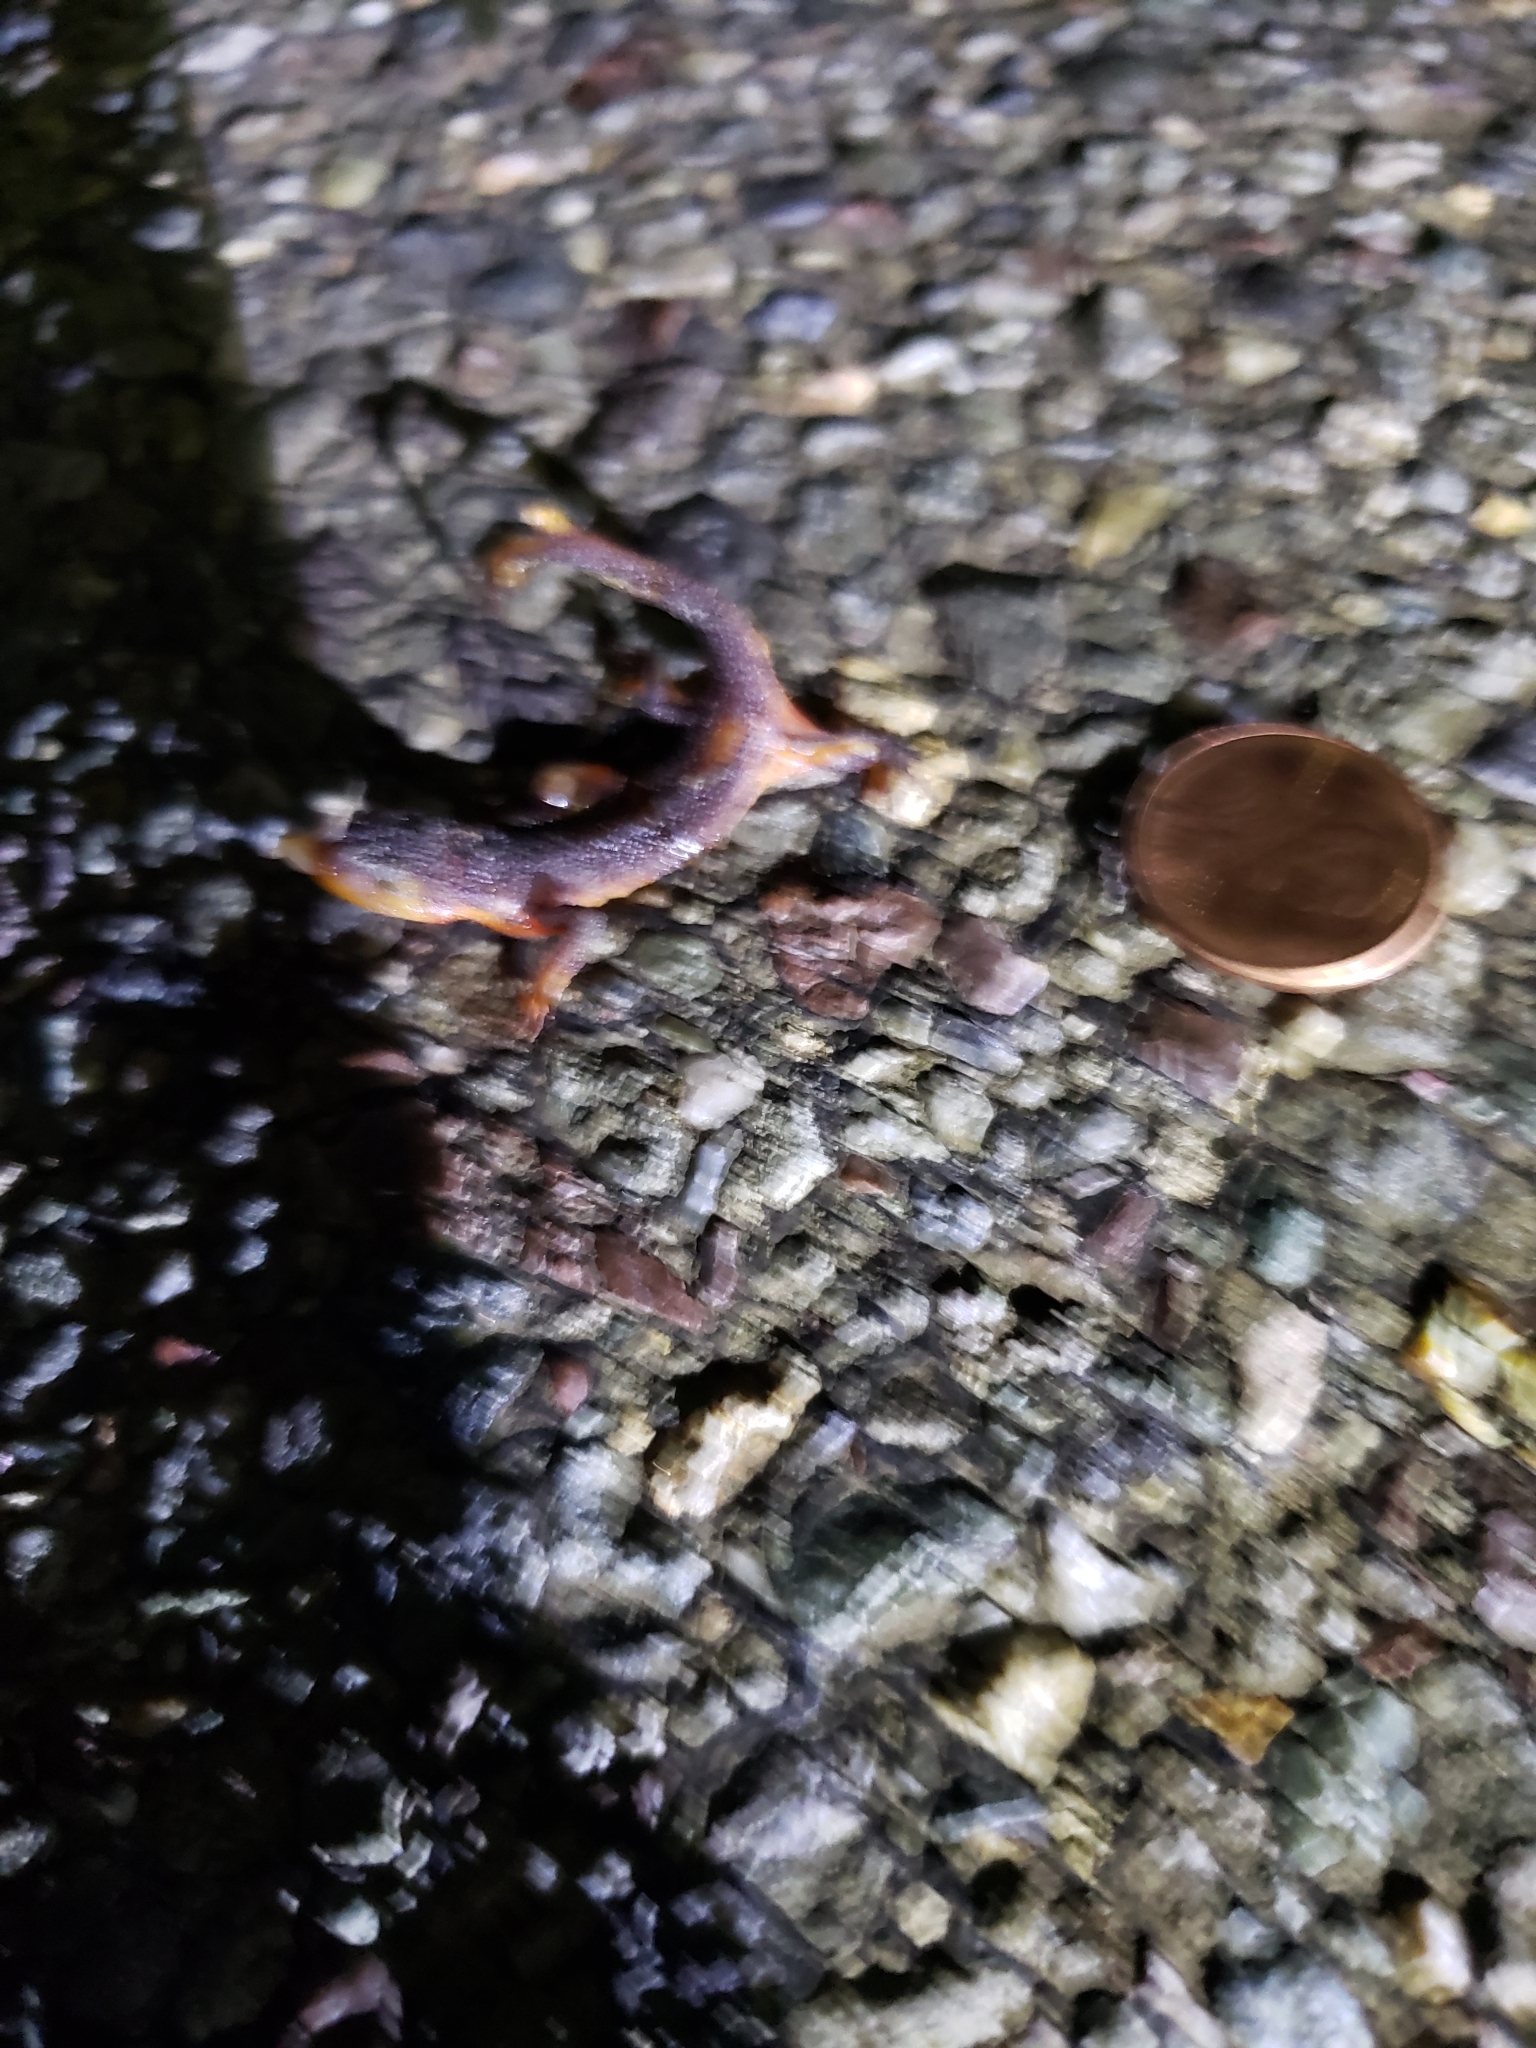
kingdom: Animalia
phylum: Chordata
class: Amphibia
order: Caudata
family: Salamandridae
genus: Taricha
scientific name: Taricha torosa
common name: California newt
